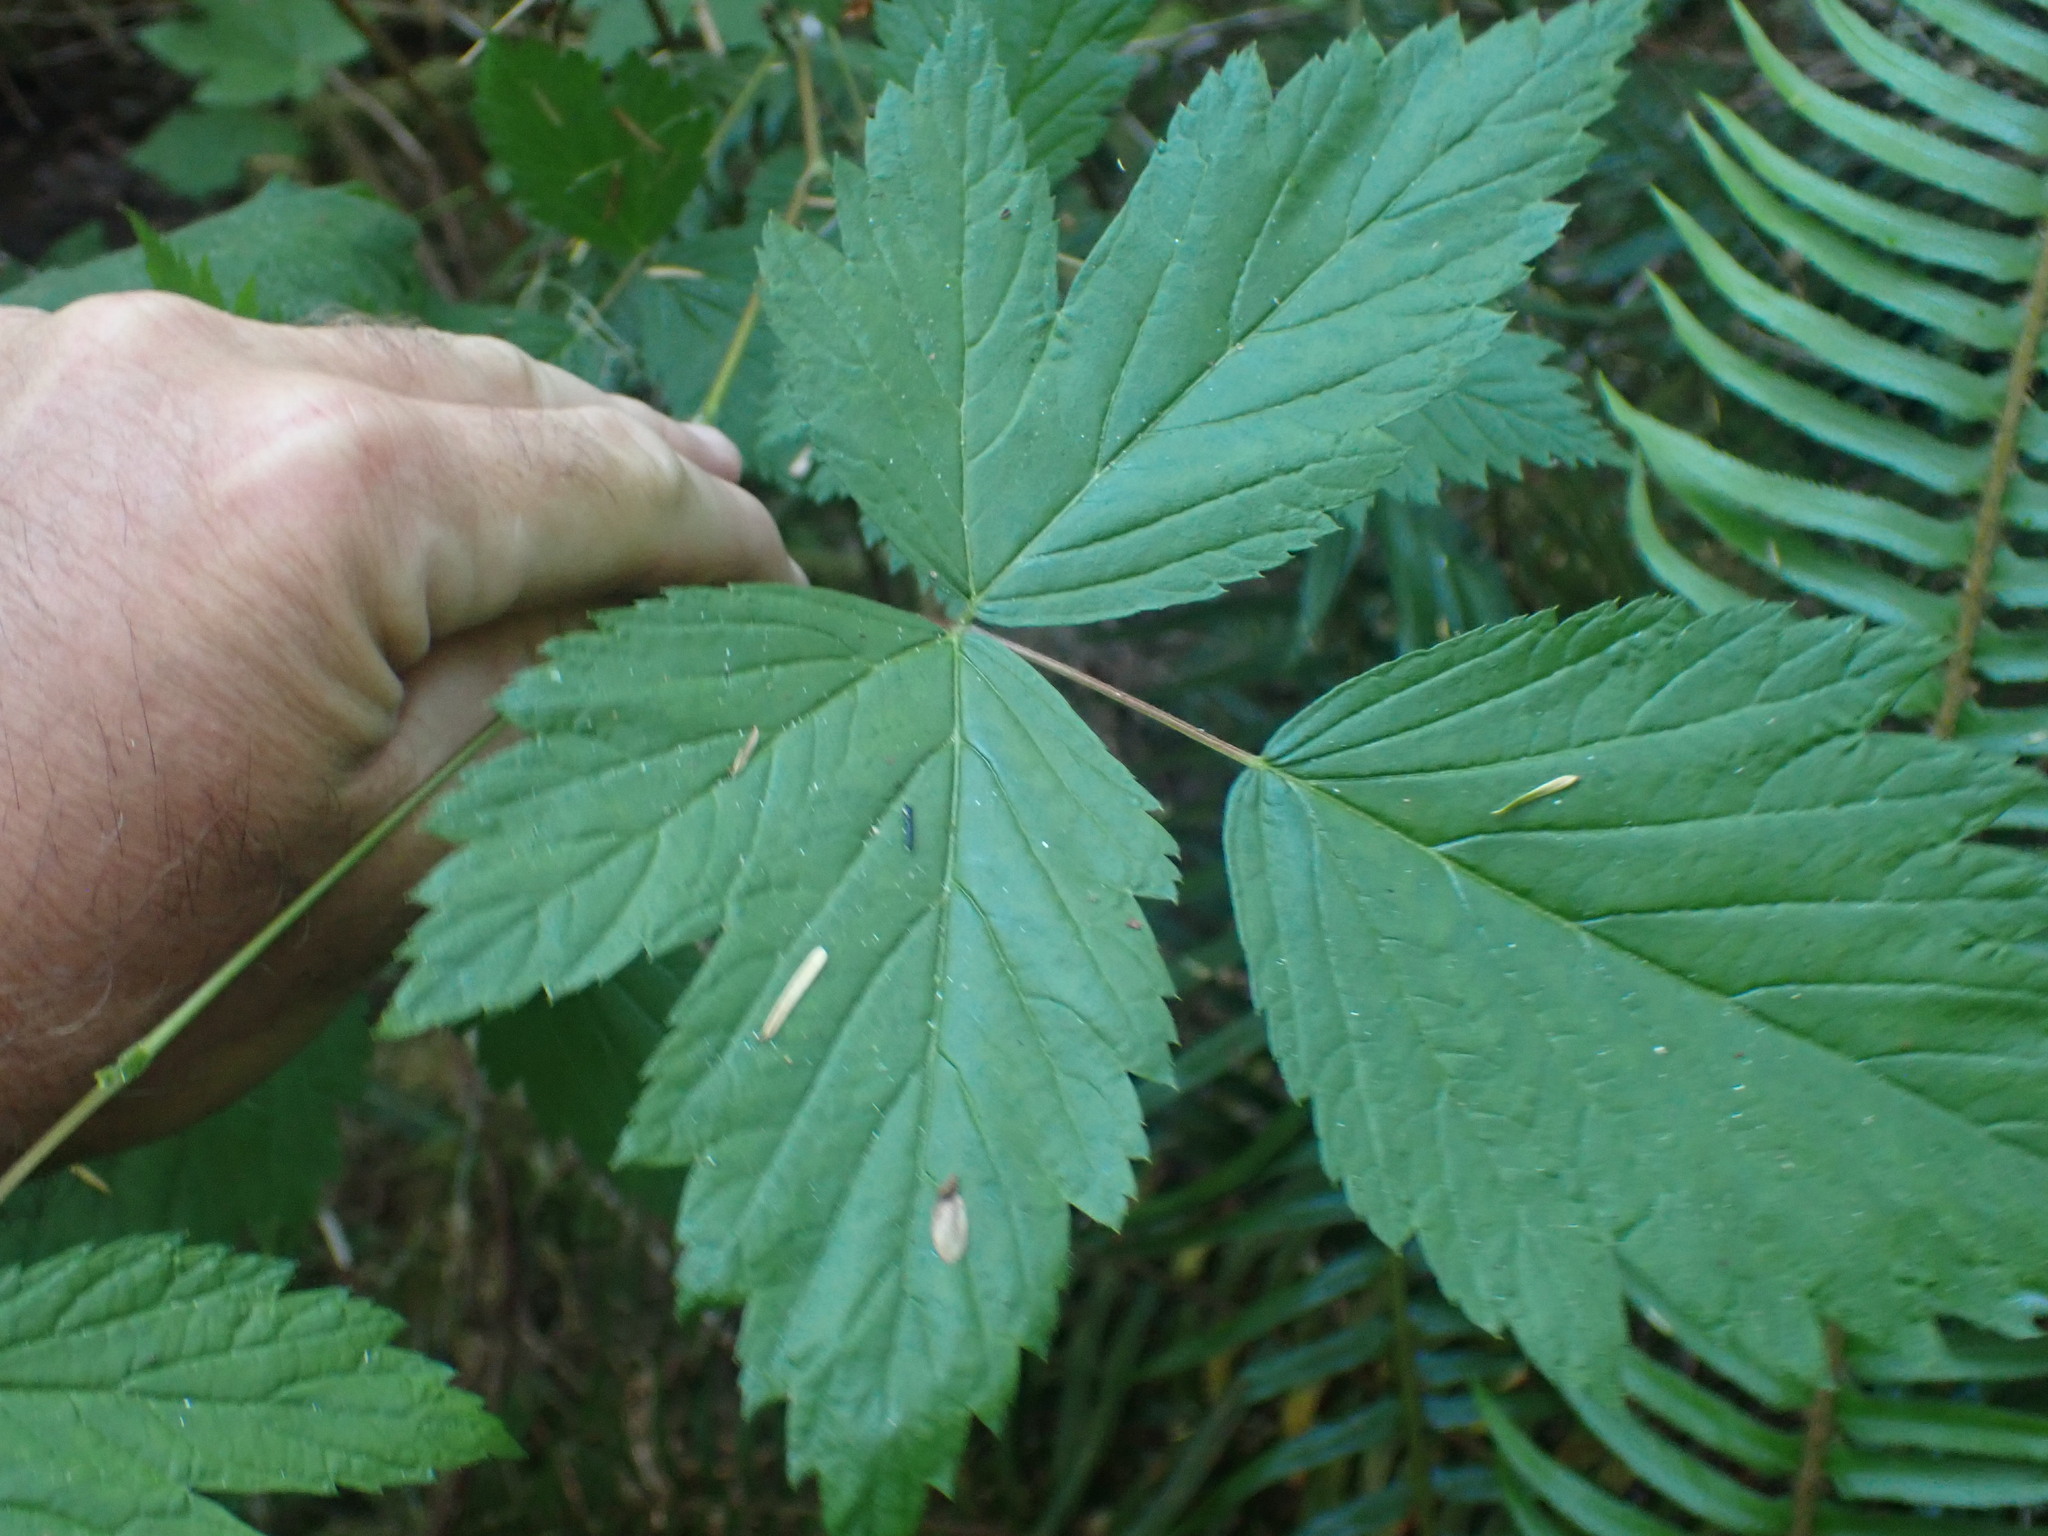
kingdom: Plantae
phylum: Tracheophyta
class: Magnoliopsida
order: Rosales
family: Rosaceae
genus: Rubus
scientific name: Rubus spectabilis
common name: Salmonberry
